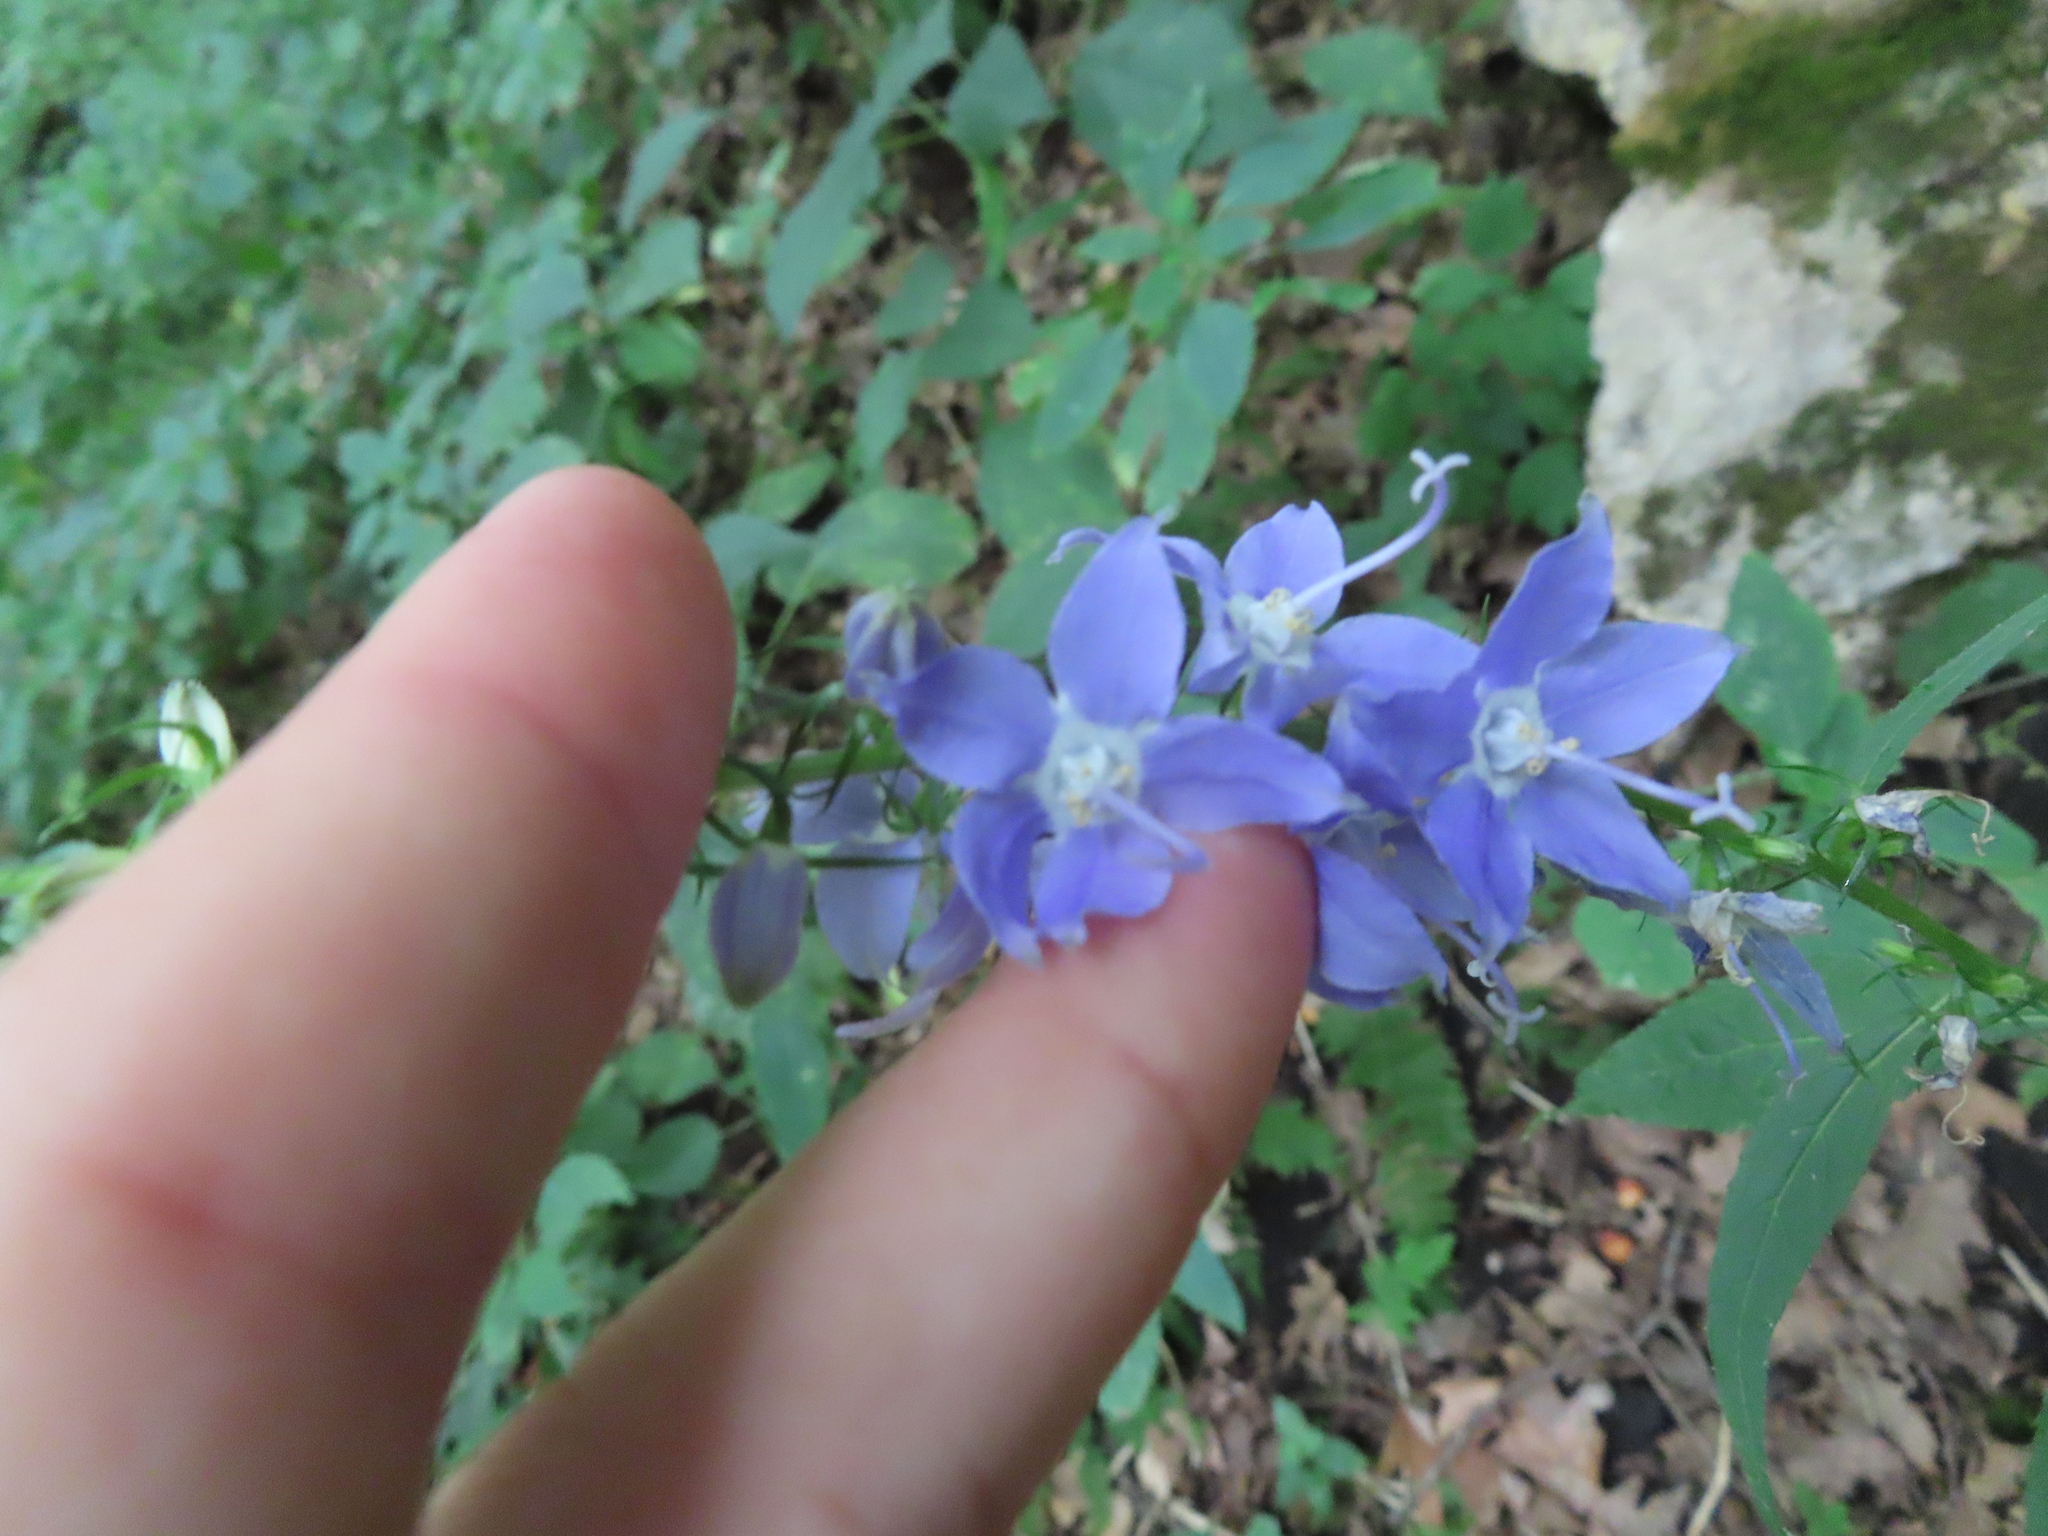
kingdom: Plantae
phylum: Tracheophyta
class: Magnoliopsida
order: Asterales
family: Campanulaceae
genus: Campanulastrum
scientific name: Campanulastrum americanum
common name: American bellflower
